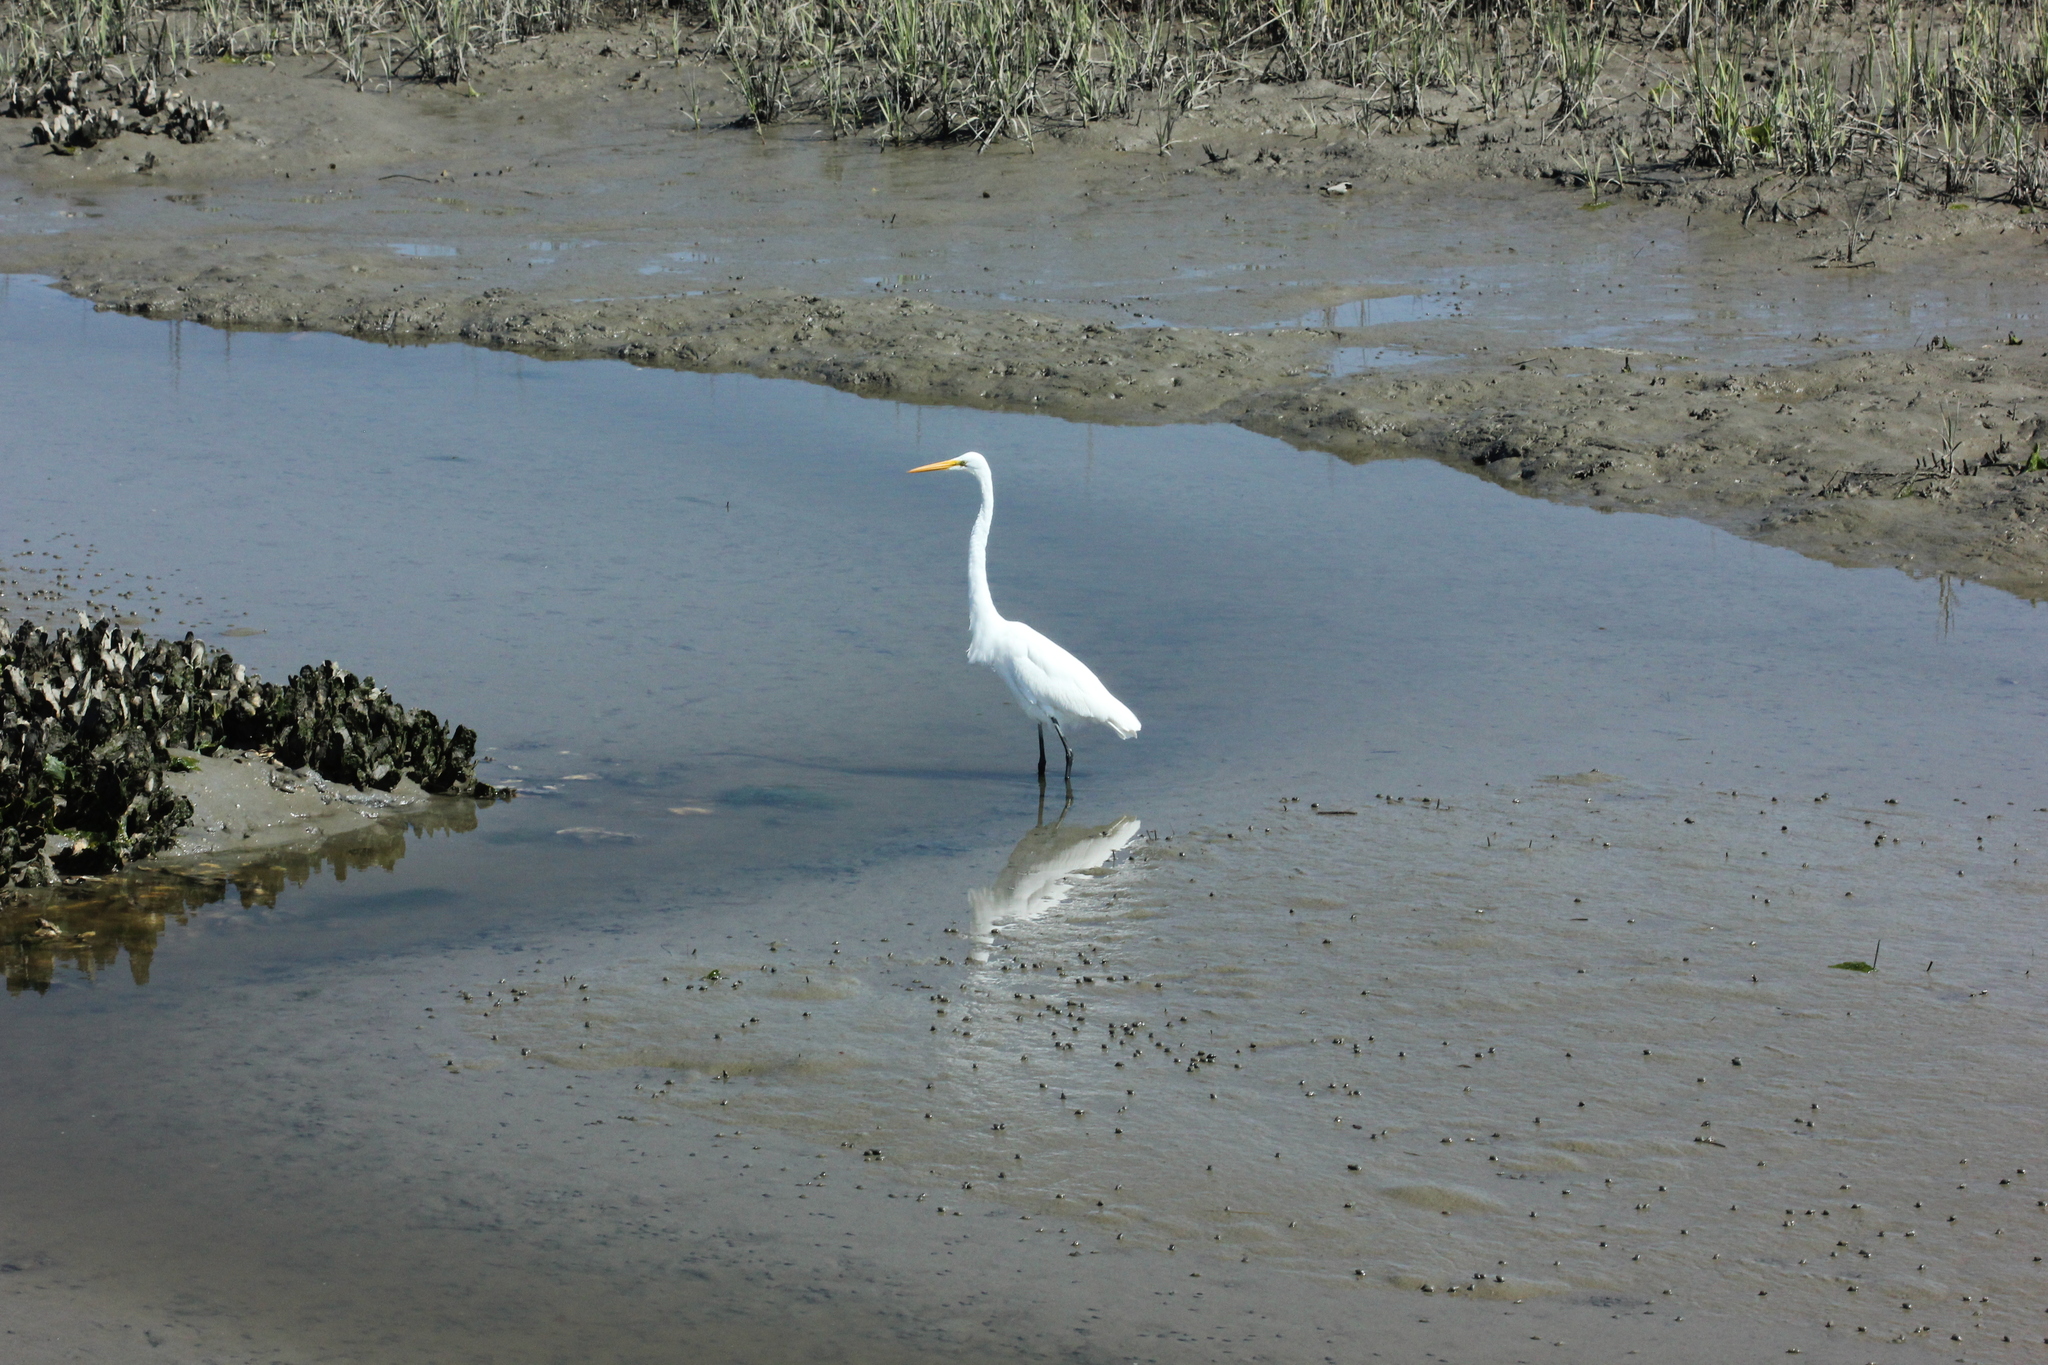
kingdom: Animalia
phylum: Chordata
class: Aves
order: Pelecaniformes
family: Ardeidae
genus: Ardea
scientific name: Ardea alba
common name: Great egret
